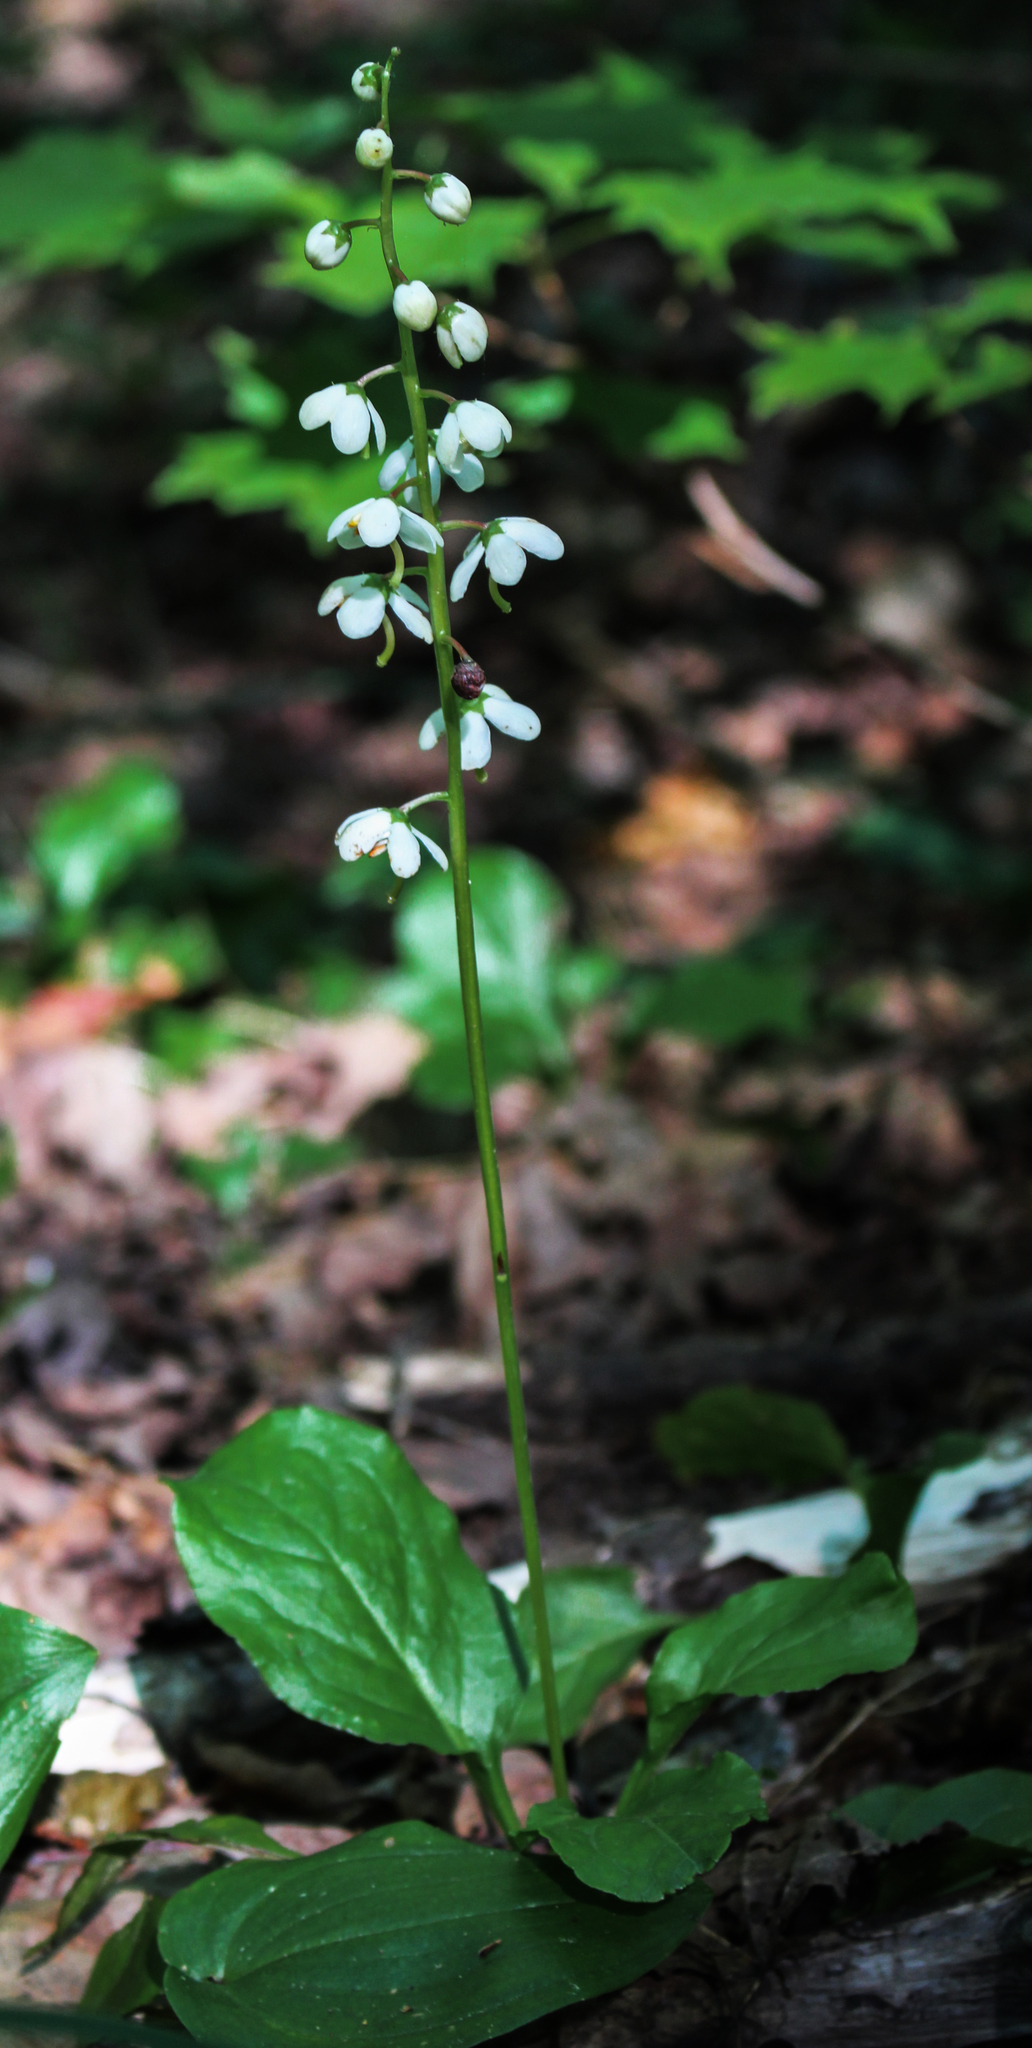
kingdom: Plantae
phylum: Tracheophyta
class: Magnoliopsida
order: Ericales
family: Ericaceae
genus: Pyrola
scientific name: Pyrola elliptica
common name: Shinleaf
